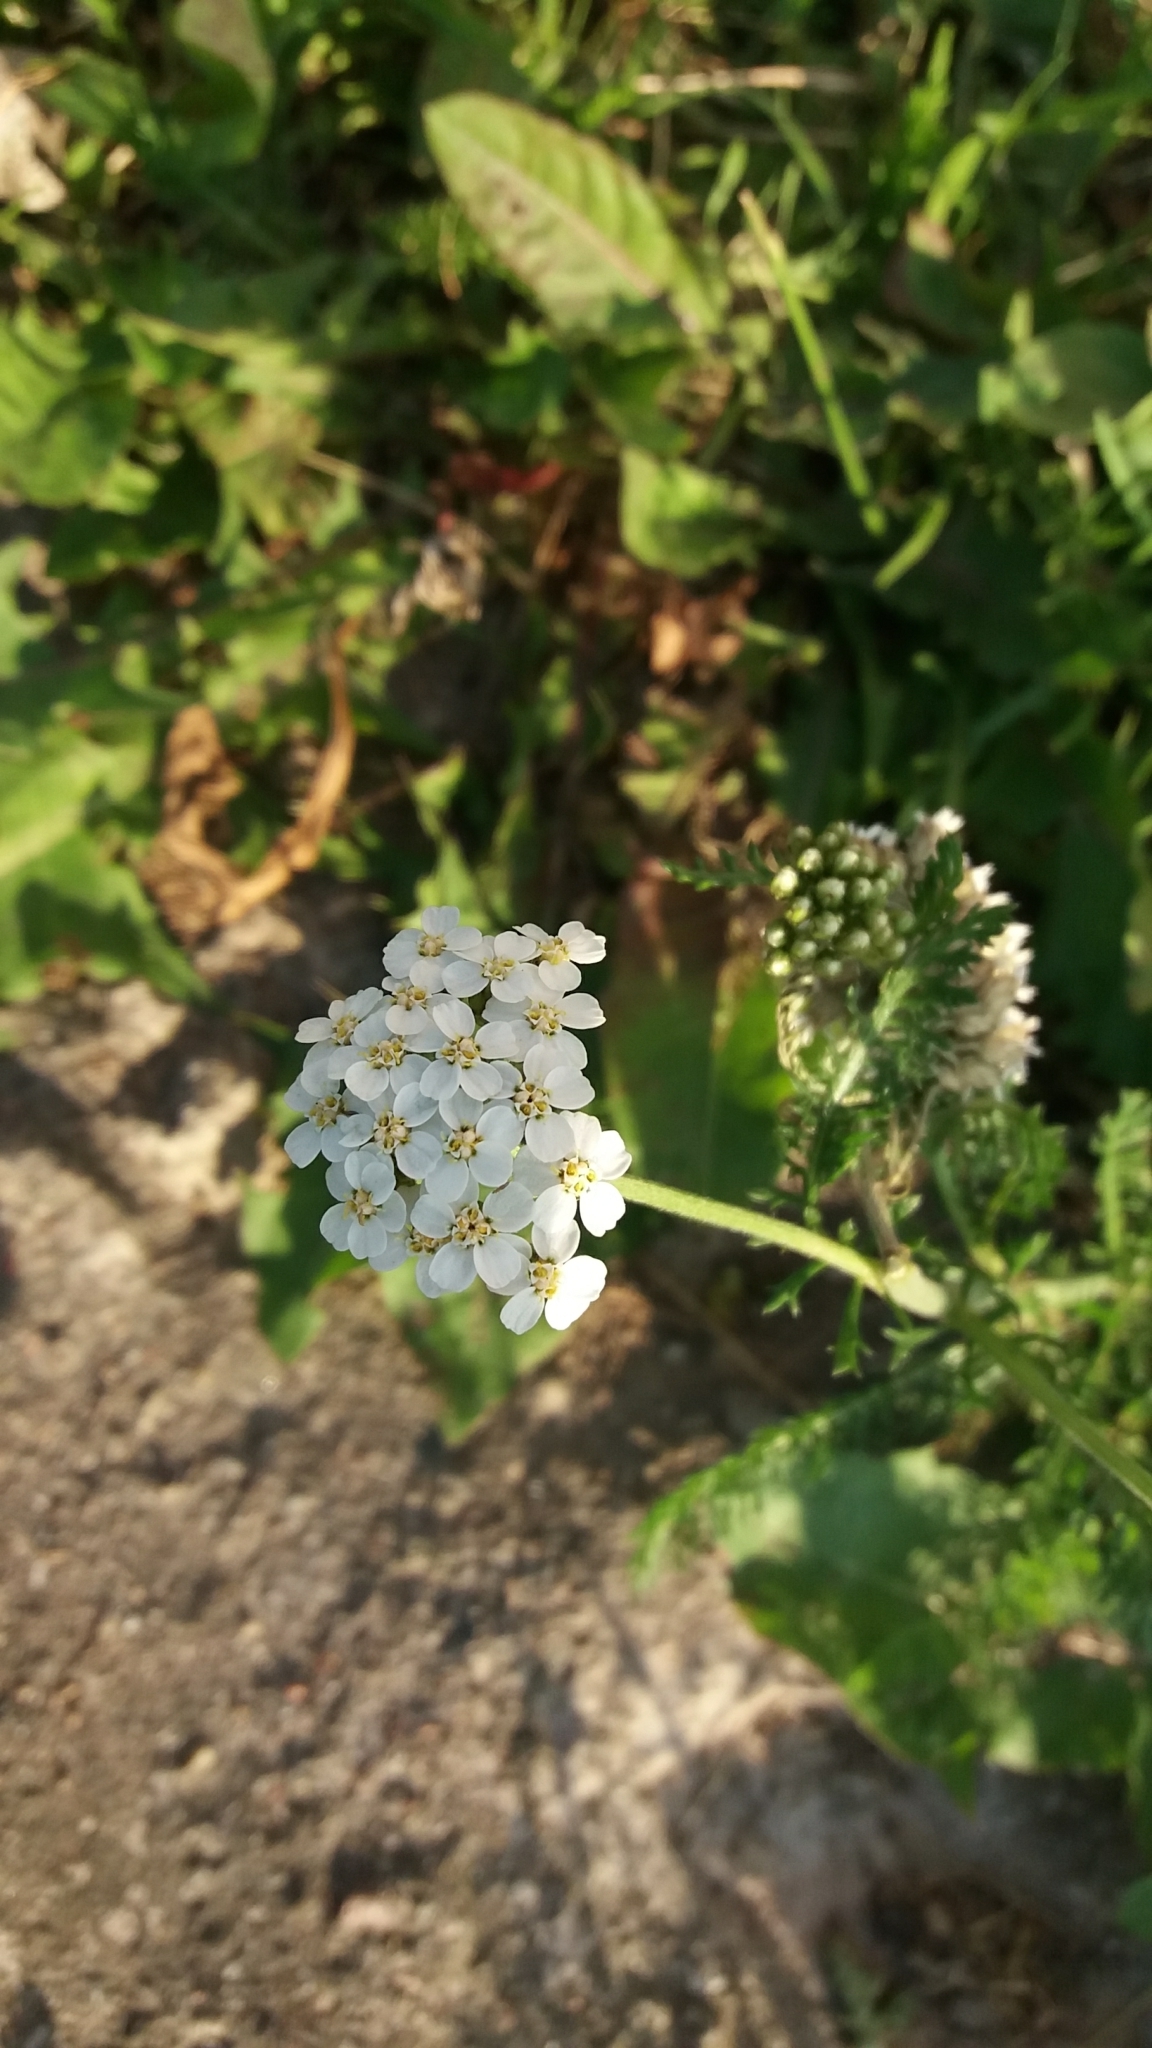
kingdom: Plantae
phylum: Tracheophyta
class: Magnoliopsida
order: Asterales
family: Asteraceae
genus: Achillea
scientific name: Achillea millefolium
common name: Yarrow
